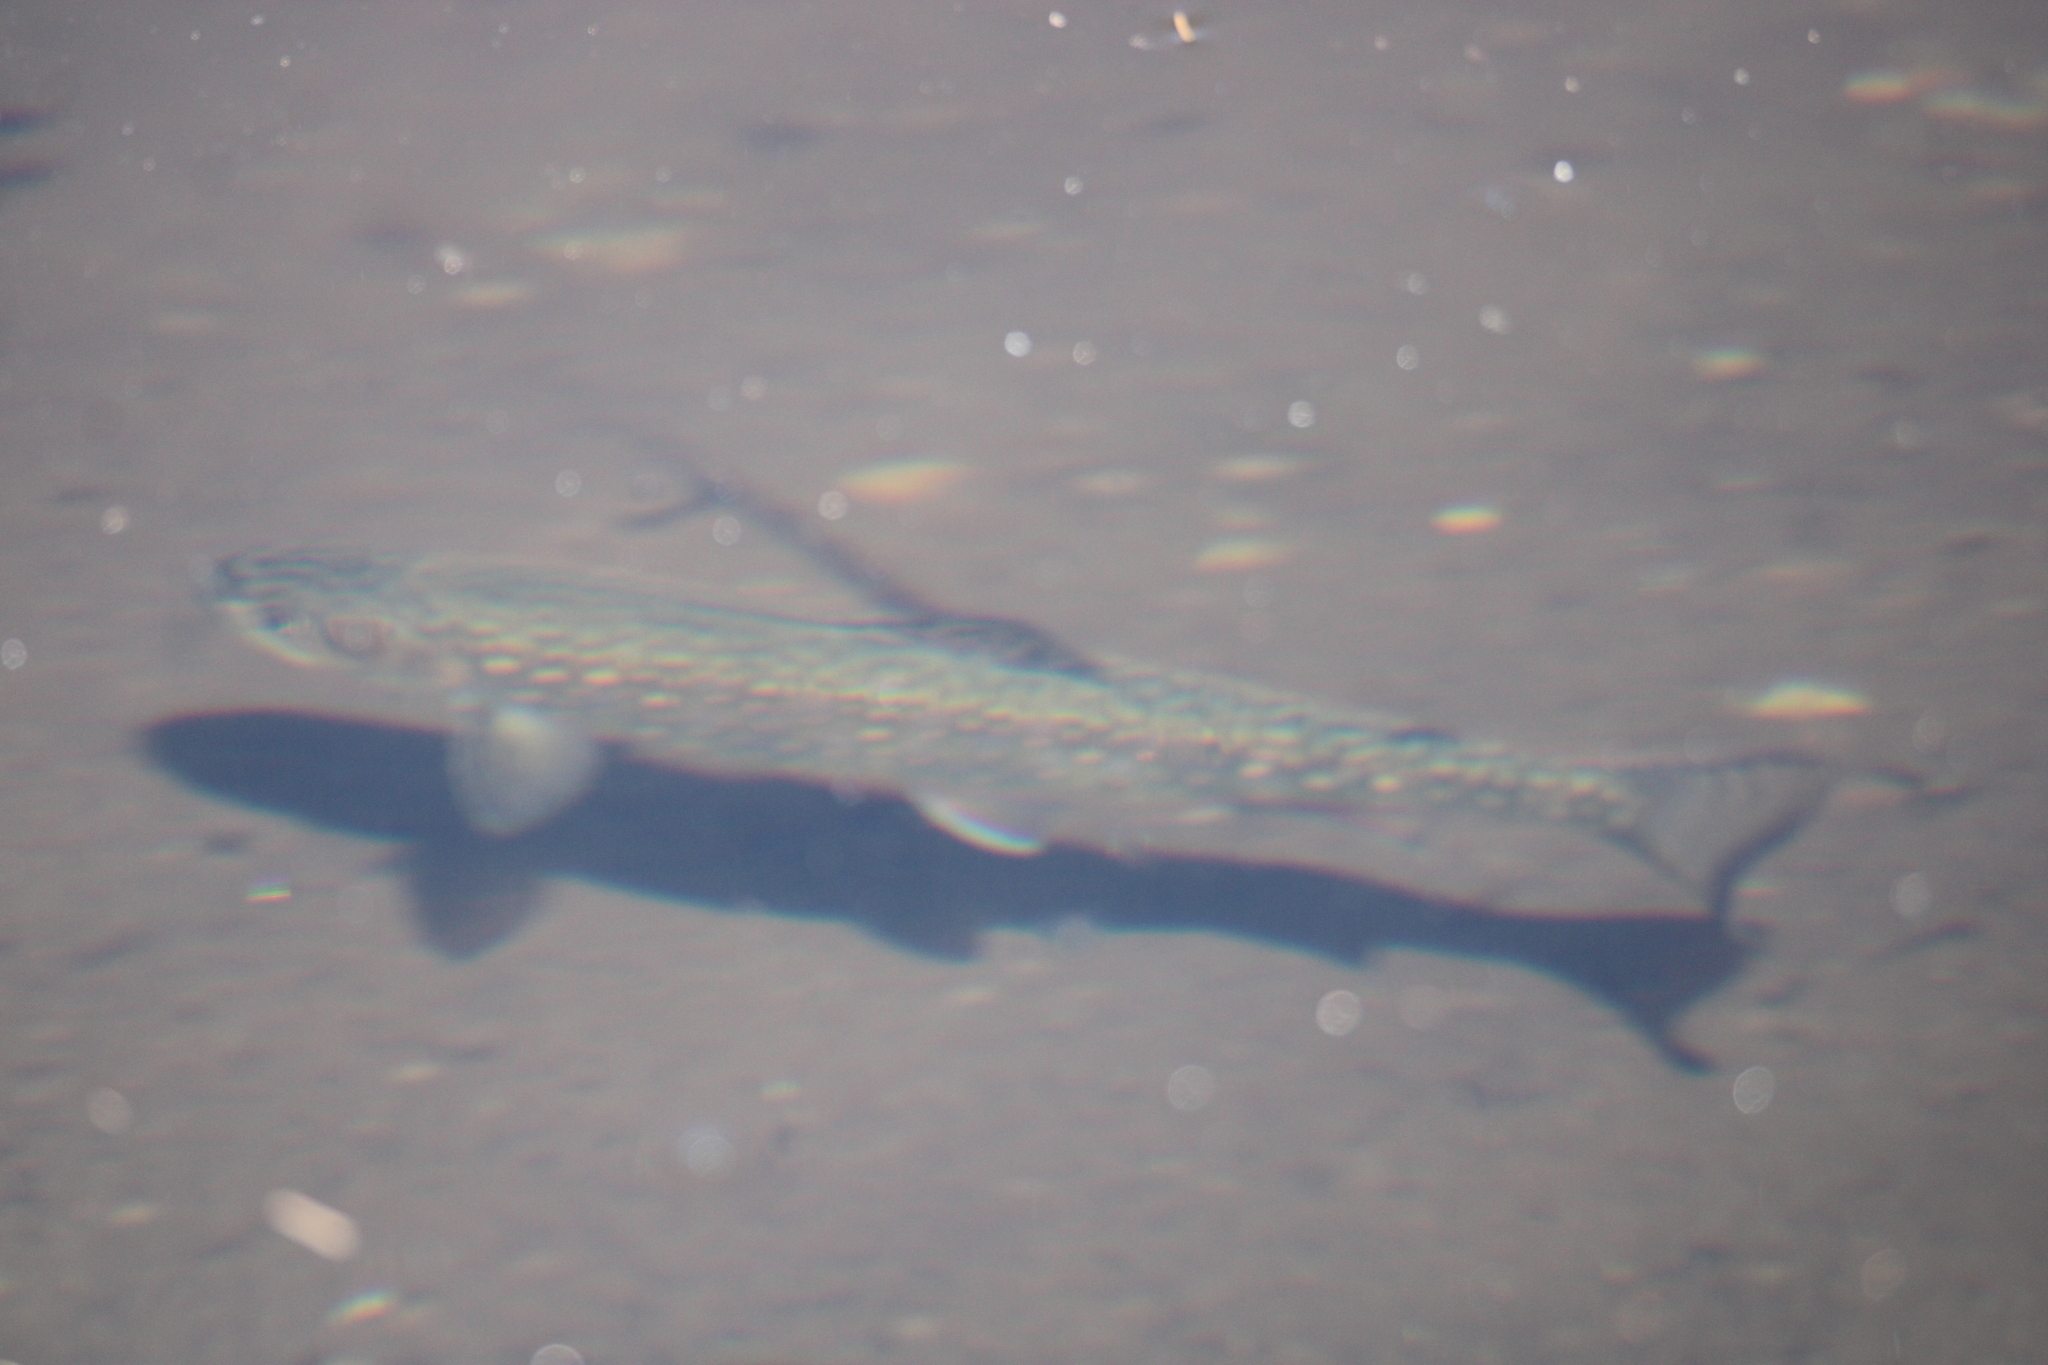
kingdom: Animalia
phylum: Chordata
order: Salmoniformes
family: Salmonidae
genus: Salvelinus
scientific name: Salvelinus fontinalis
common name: Brook trout
